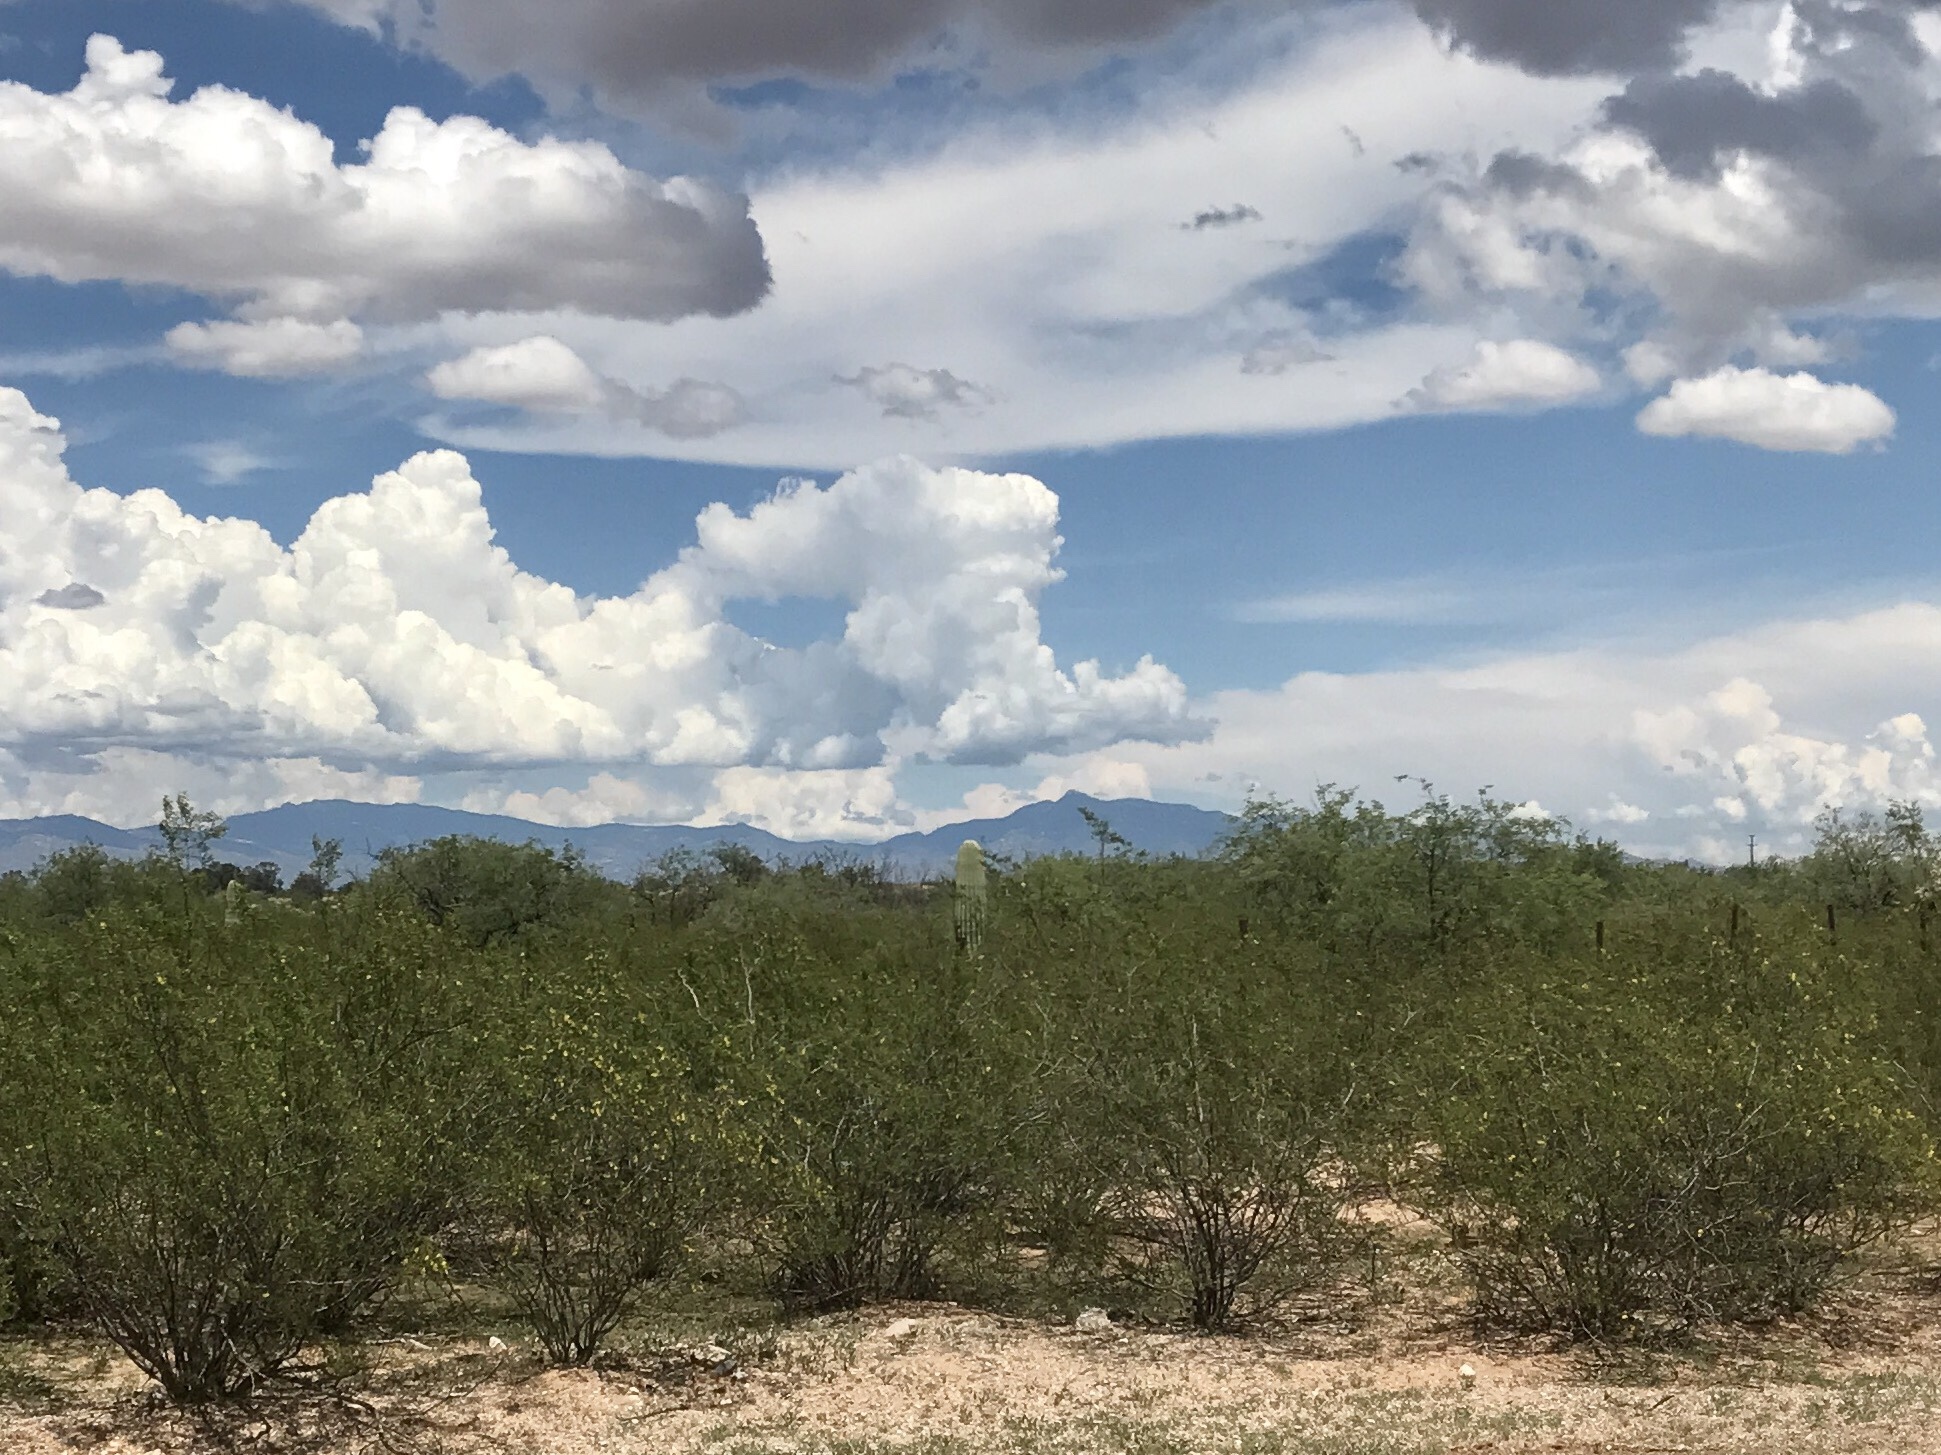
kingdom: Plantae
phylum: Tracheophyta
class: Magnoliopsida
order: Zygophyllales
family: Zygophyllaceae
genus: Larrea
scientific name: Larrea tridentata
